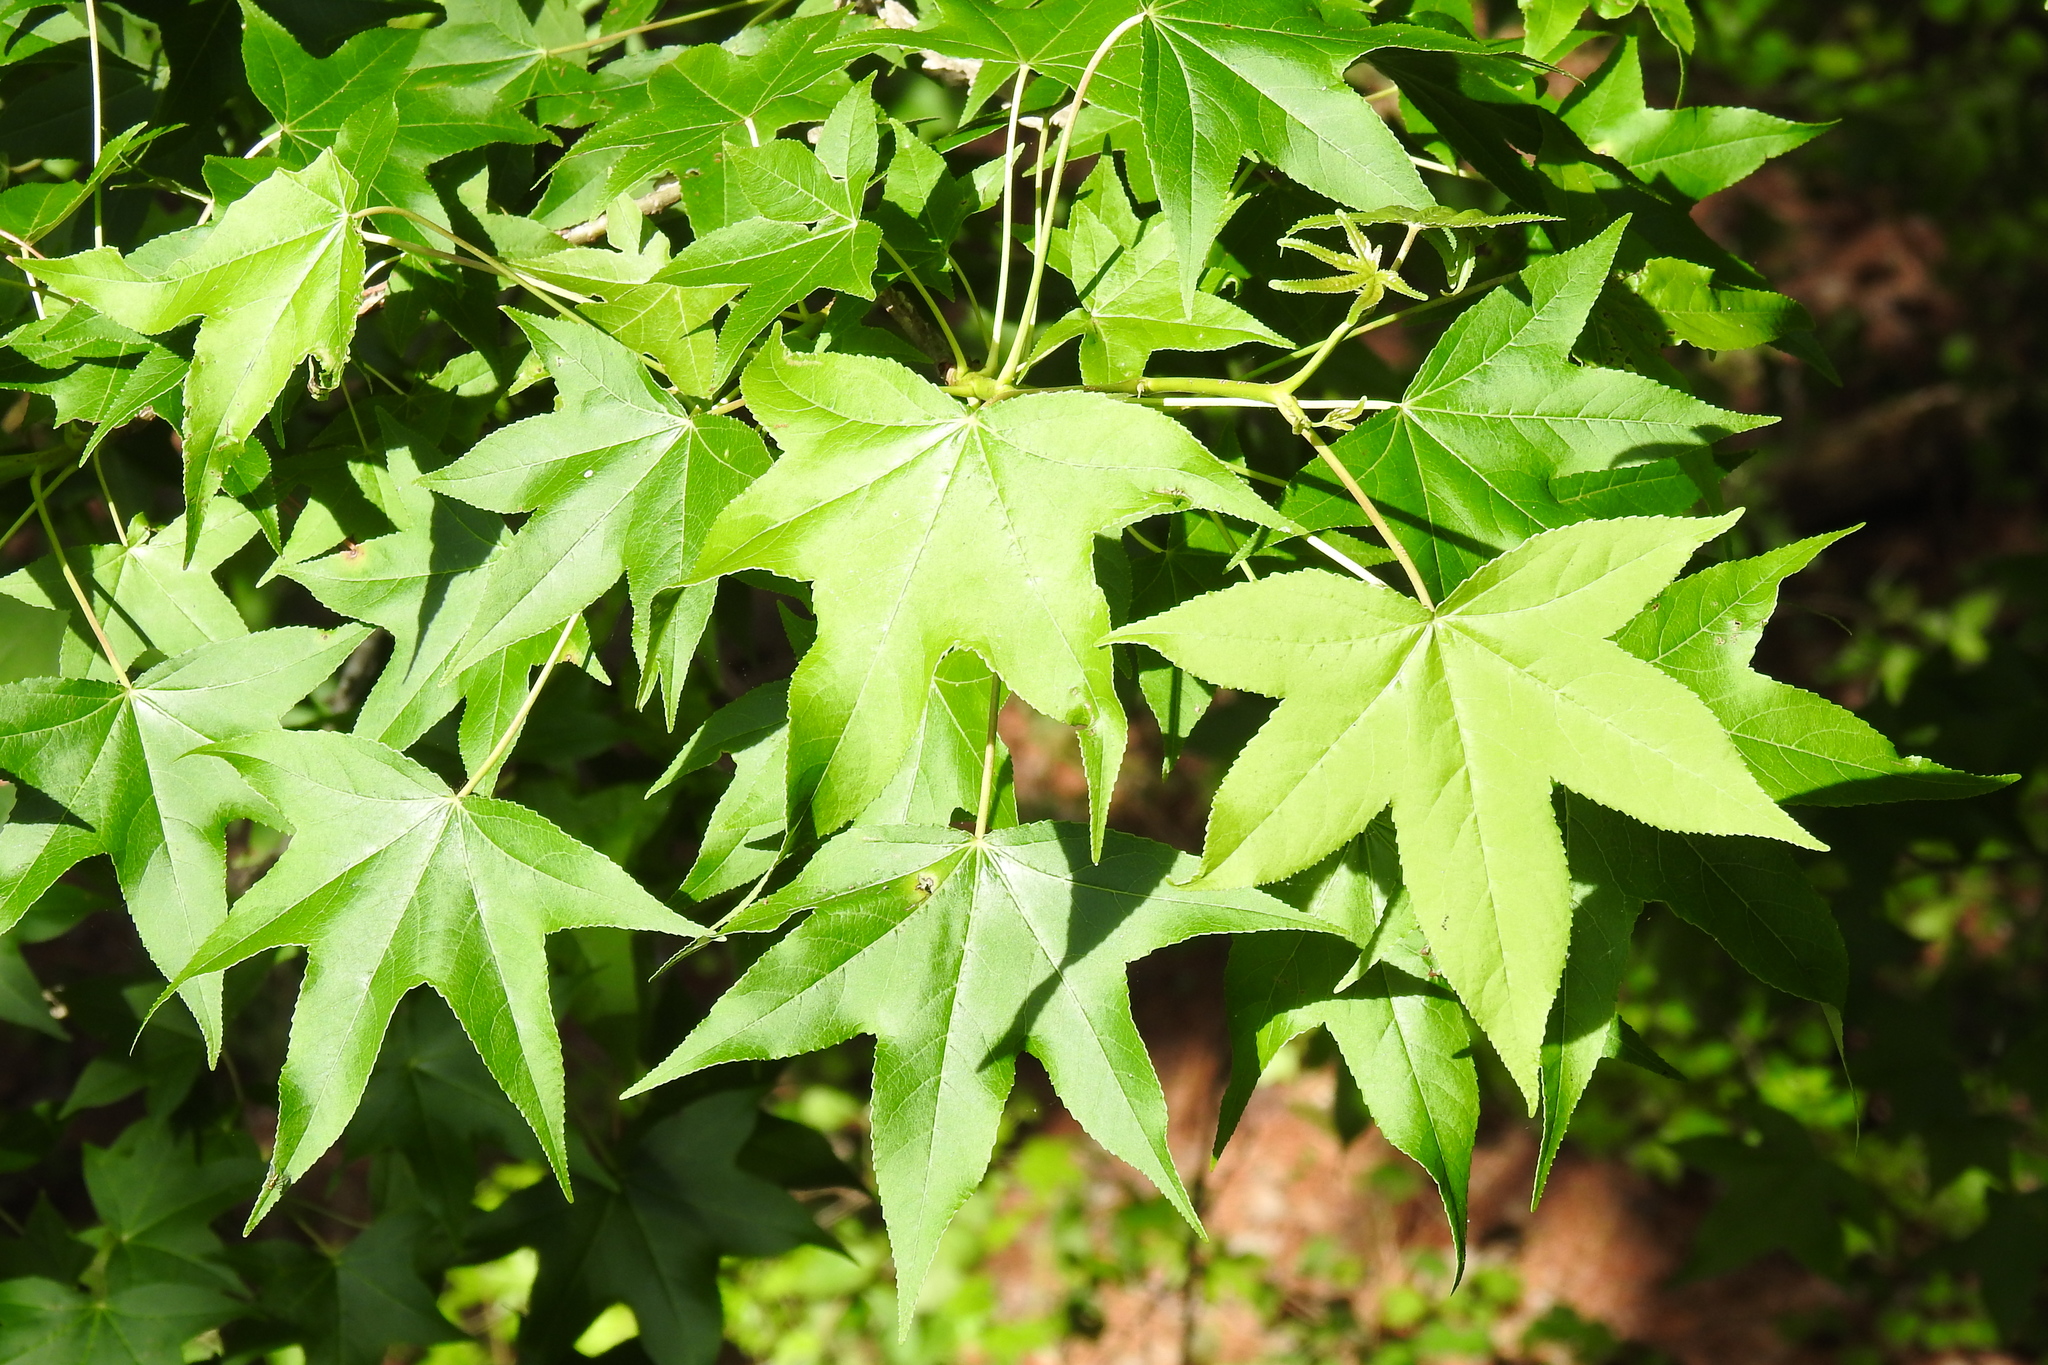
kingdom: Plantae
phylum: Tracheophyta
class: Magnoliopsida
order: Saxifragales
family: Altingiaceae
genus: Liquidambar
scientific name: Liquidambar styraciflua
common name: Sweet gum
